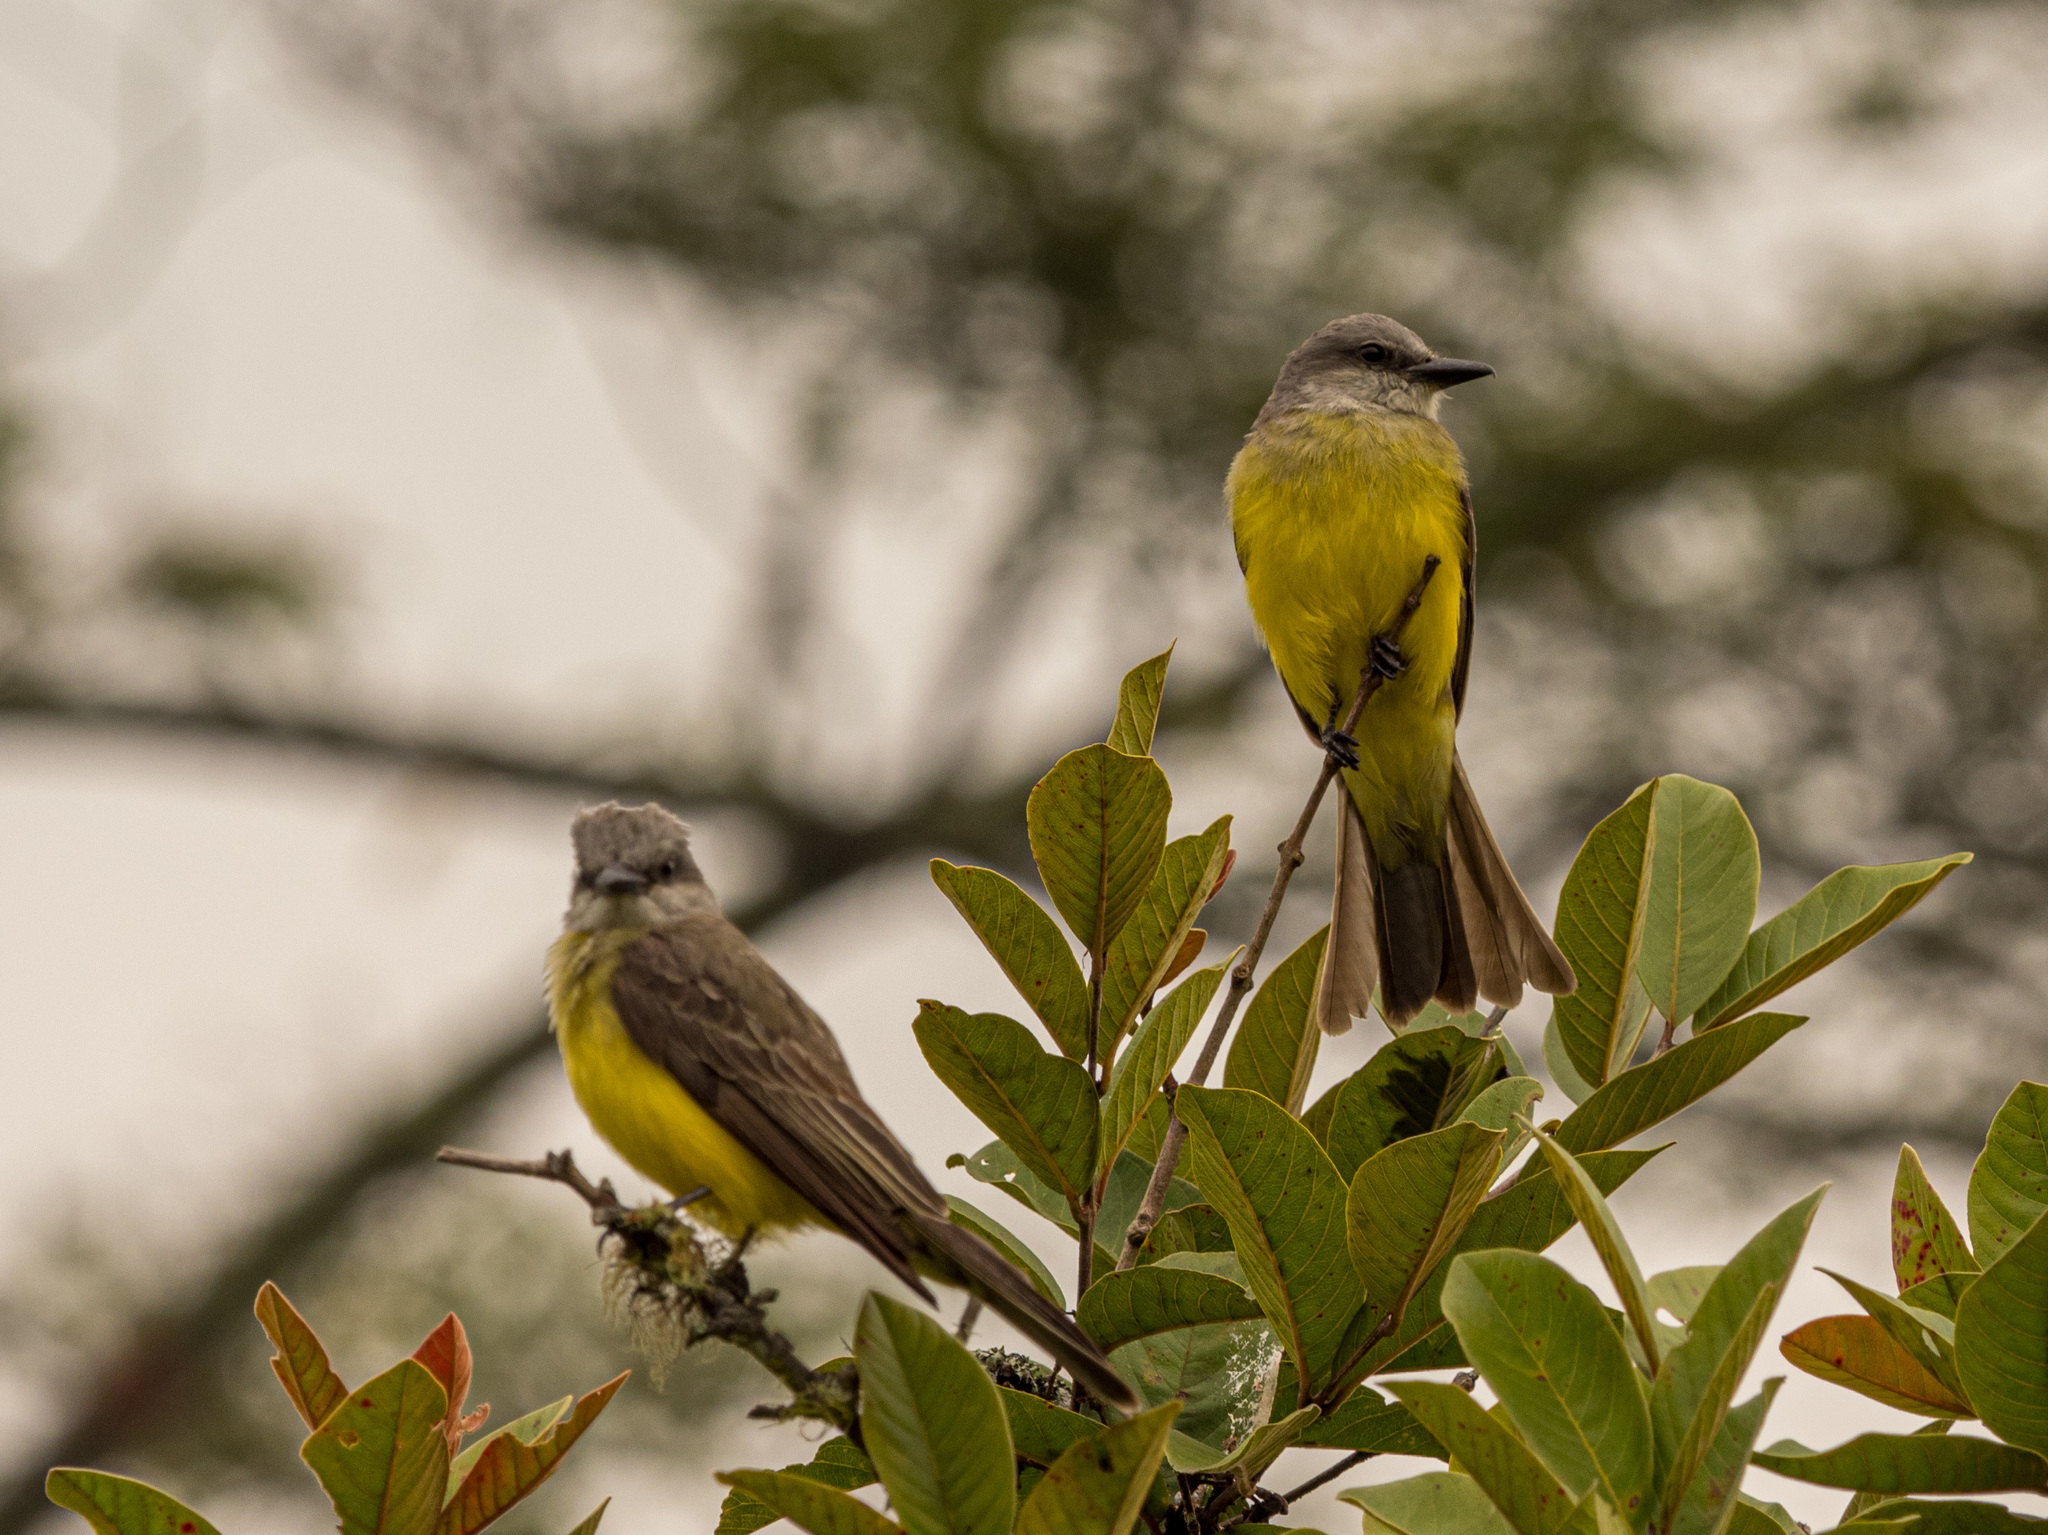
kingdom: Animalia
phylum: Chordata
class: Aves
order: Passeriformes
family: Tyrannidae
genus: Tyrannus
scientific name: Tyrannus melancholicus
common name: Tropical kingbird
